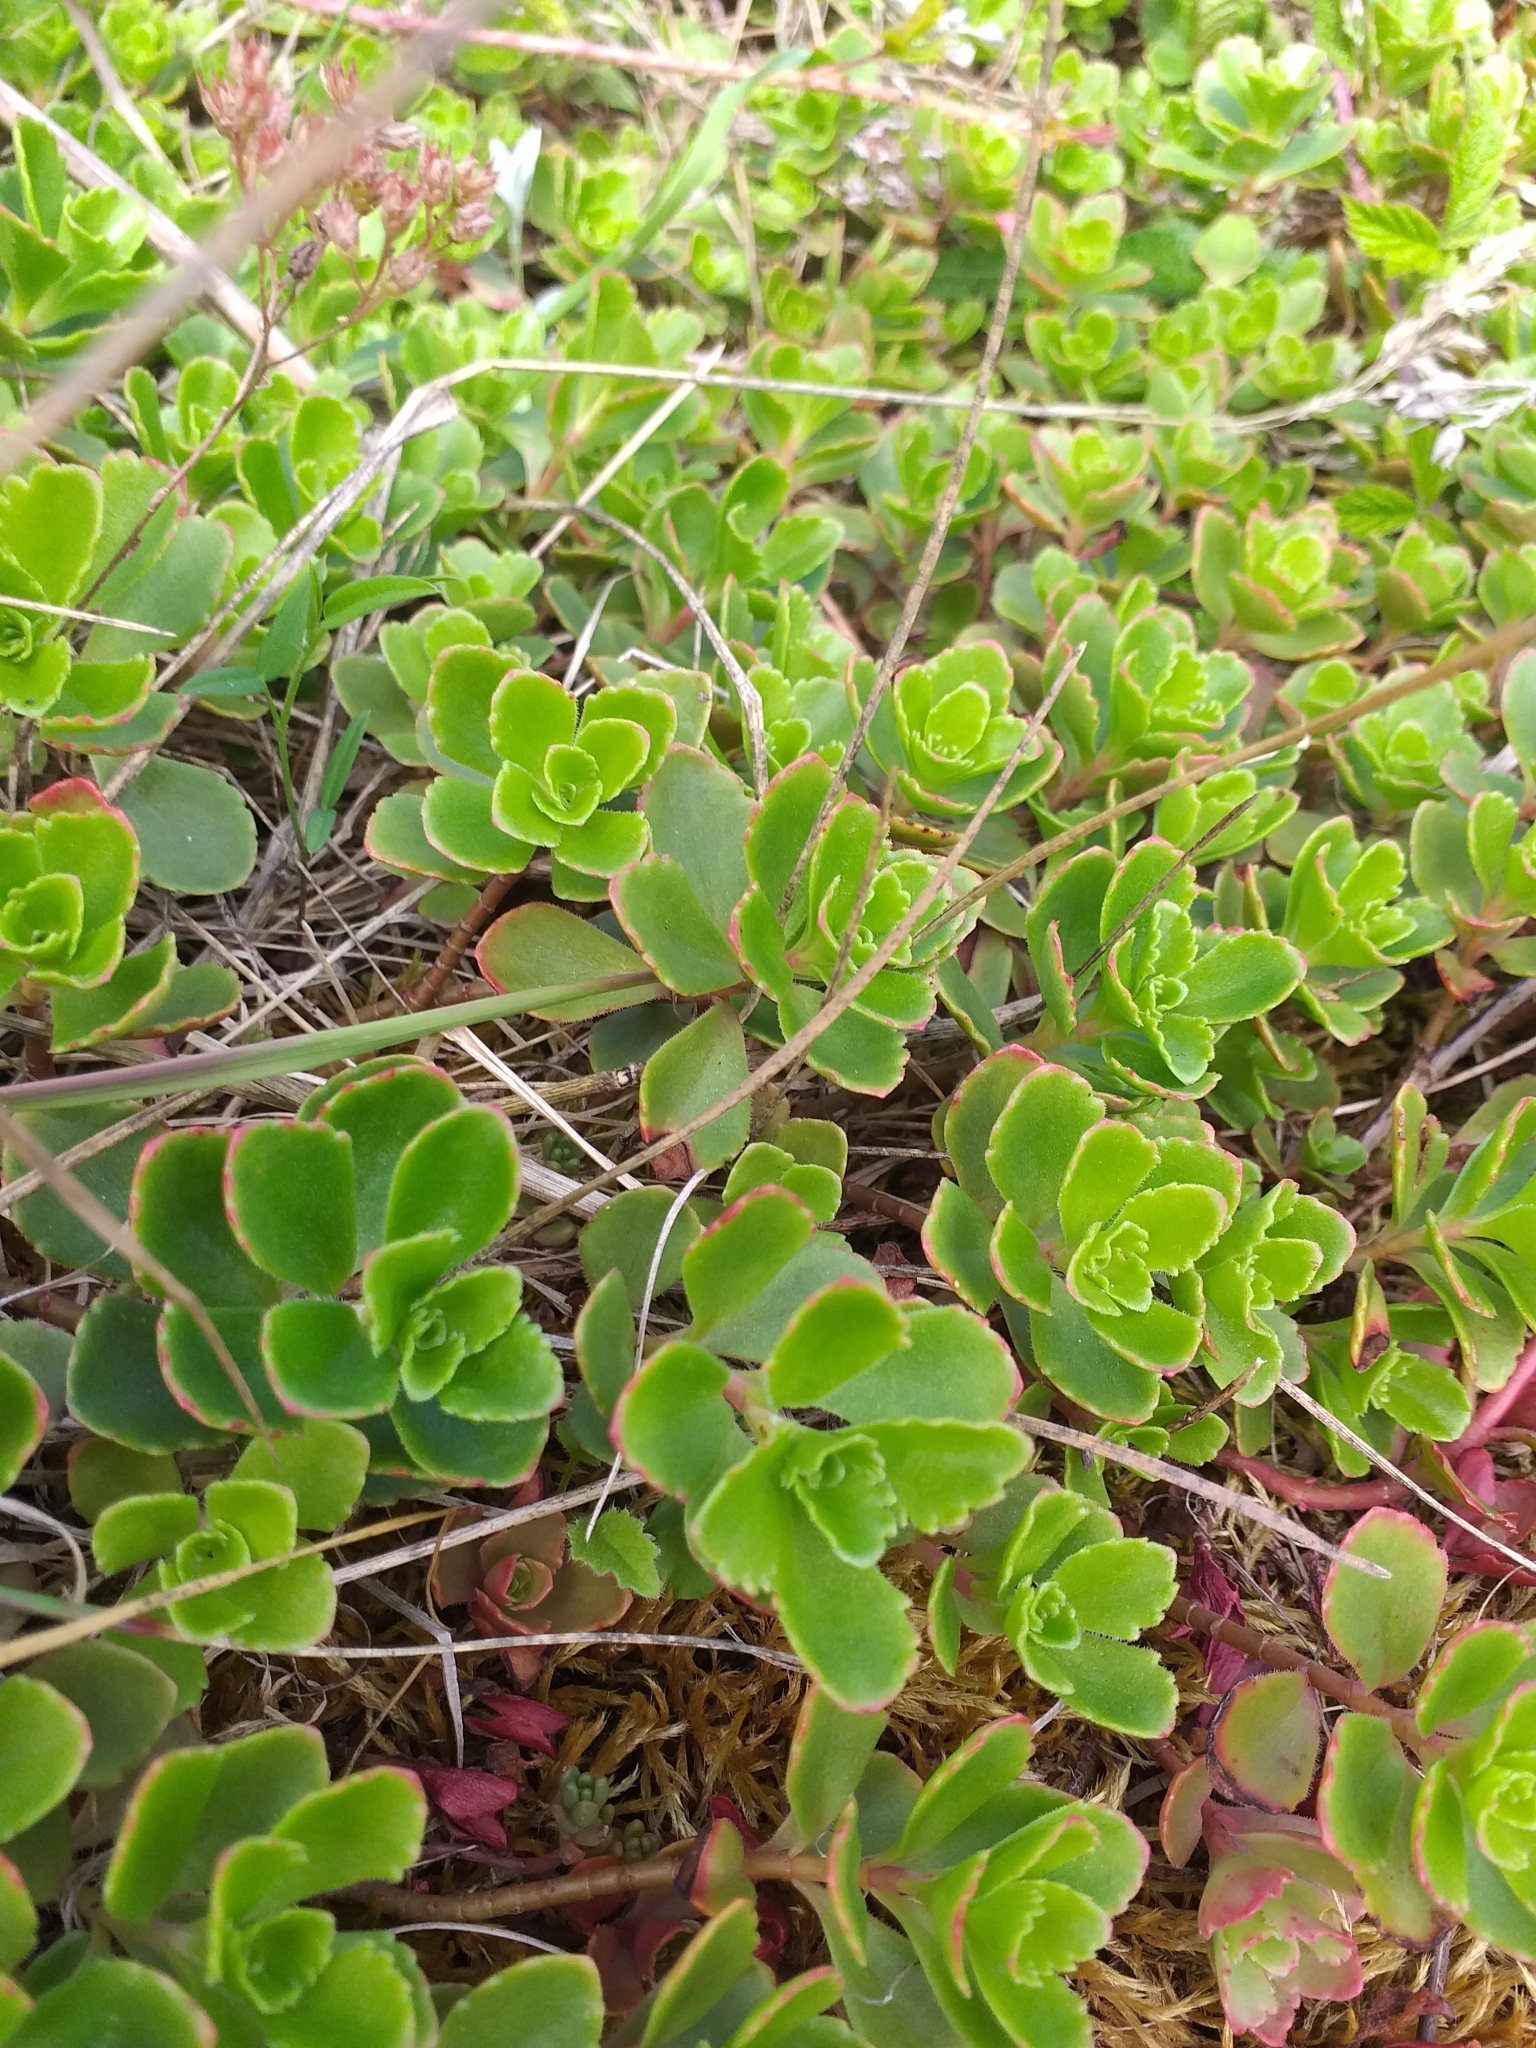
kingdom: Plantae
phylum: Tracheophyta
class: Magnoliopsida
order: Saxifragales
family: Crassulaceae
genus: Phedimus
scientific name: Phedimus spurius
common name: Caucasian stonecrop
